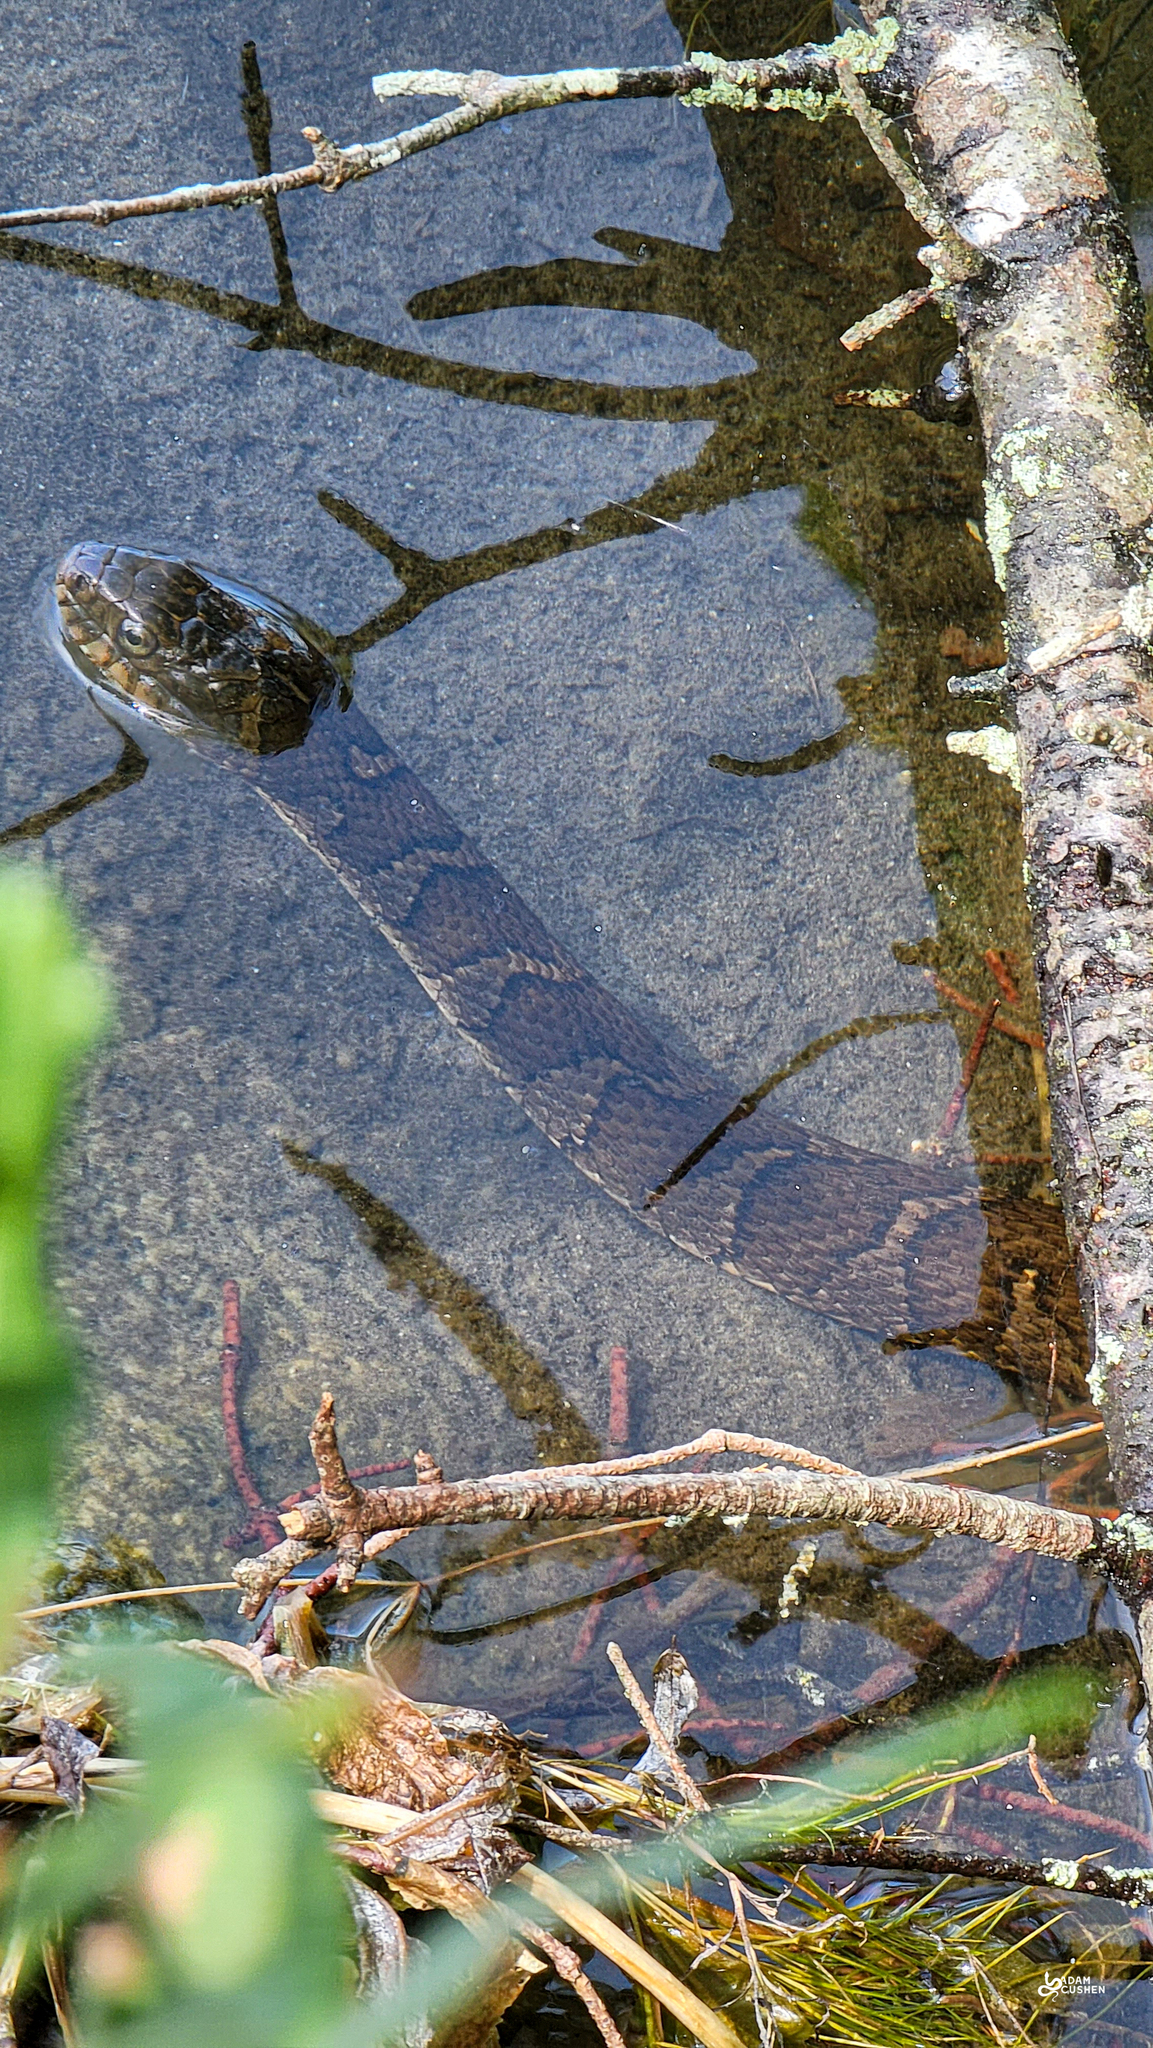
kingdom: Animalia
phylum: Chordata
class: Squamata
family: Colubridae
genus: Nerodia
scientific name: Nerodia sipedon
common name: Northern water snake
